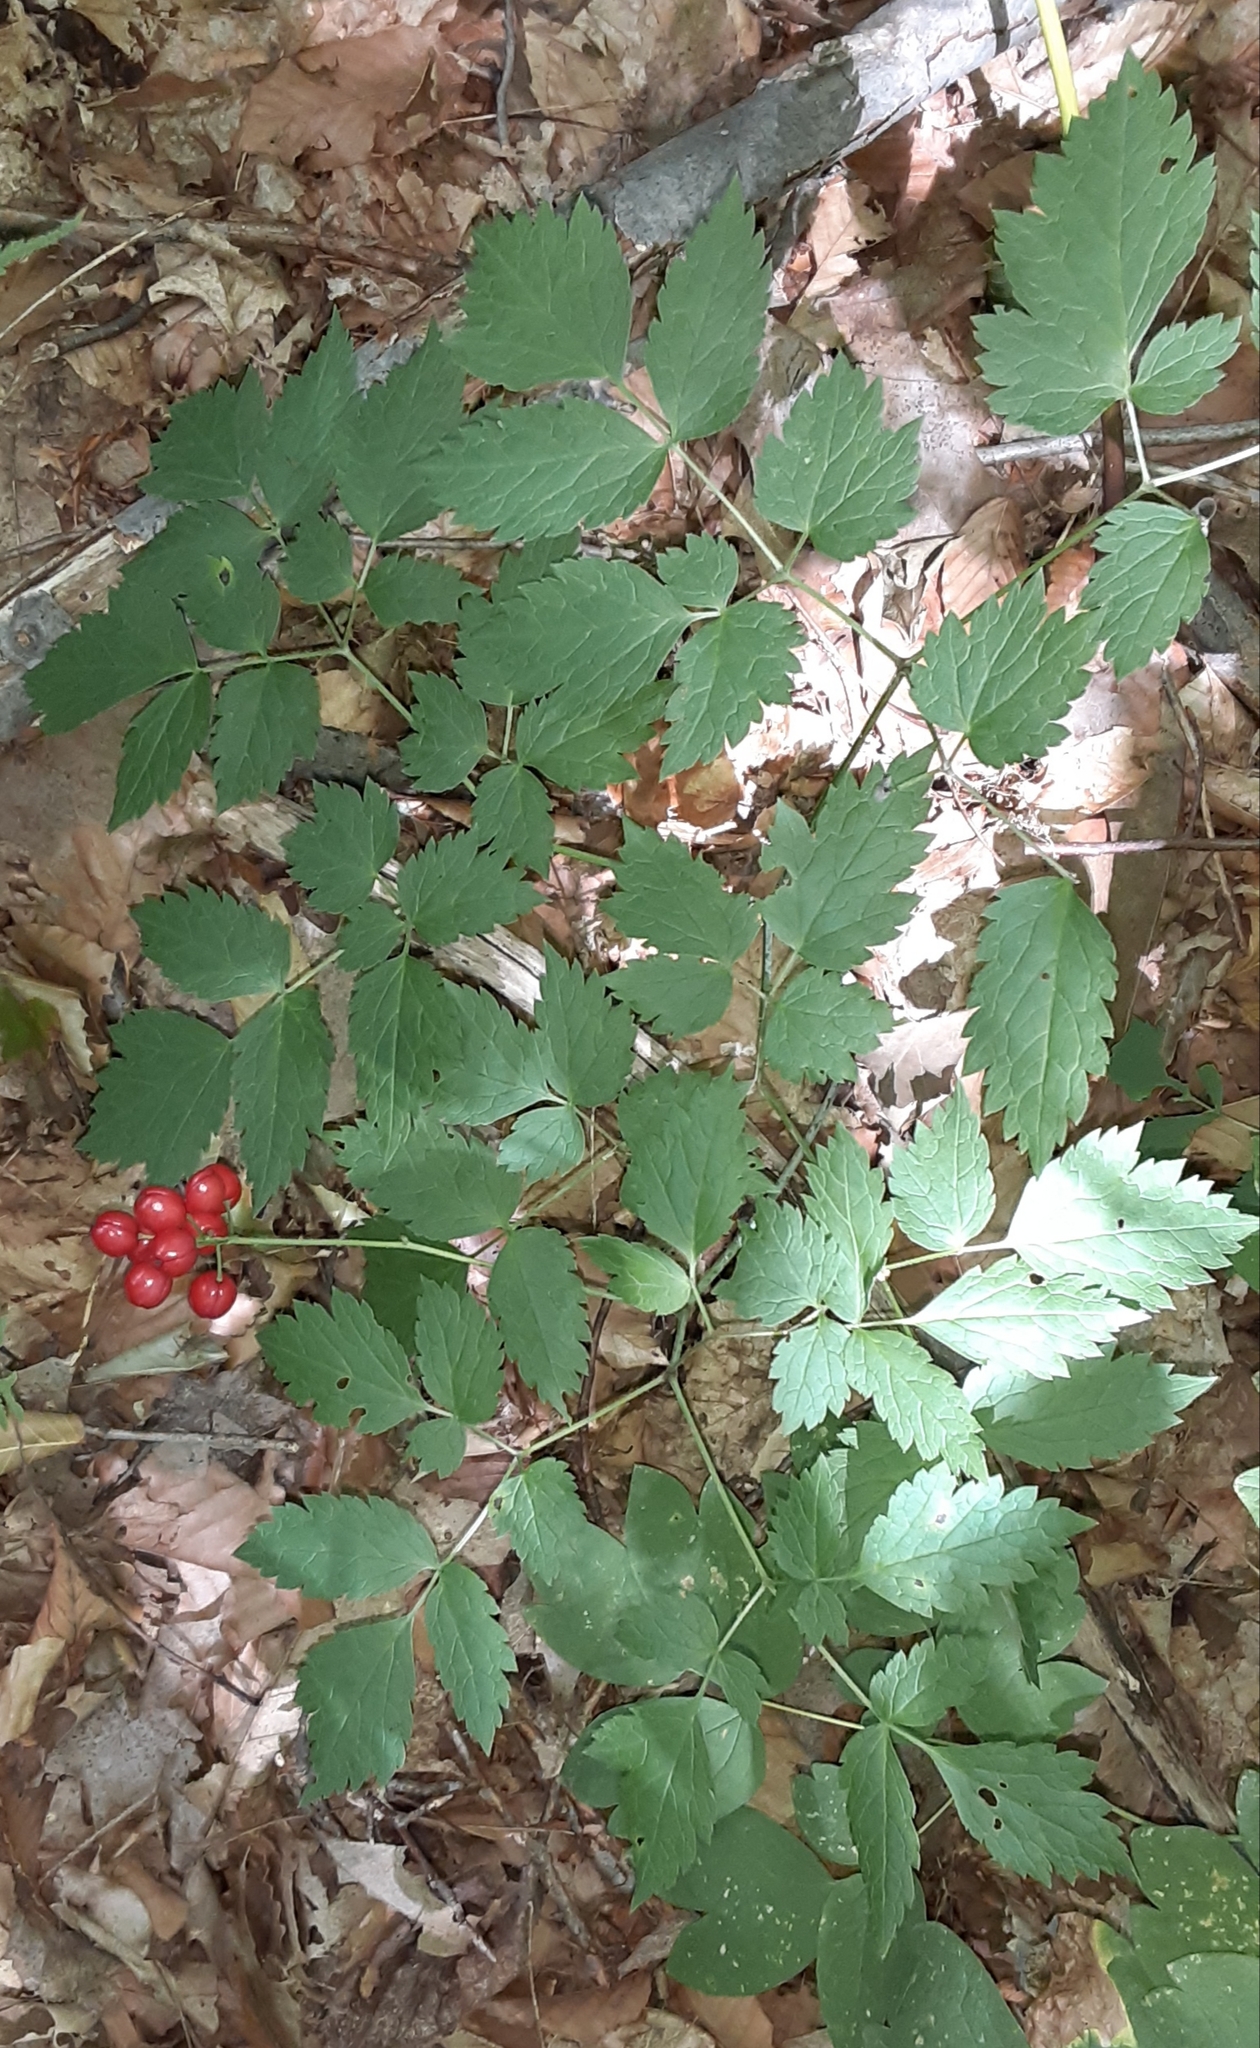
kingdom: Plantae
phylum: Tracheophyta
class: Magnoliopsida
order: Ranunculales
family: Ranunculaceae
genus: Actaea
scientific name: Actaea rubra
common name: Red baneberry
